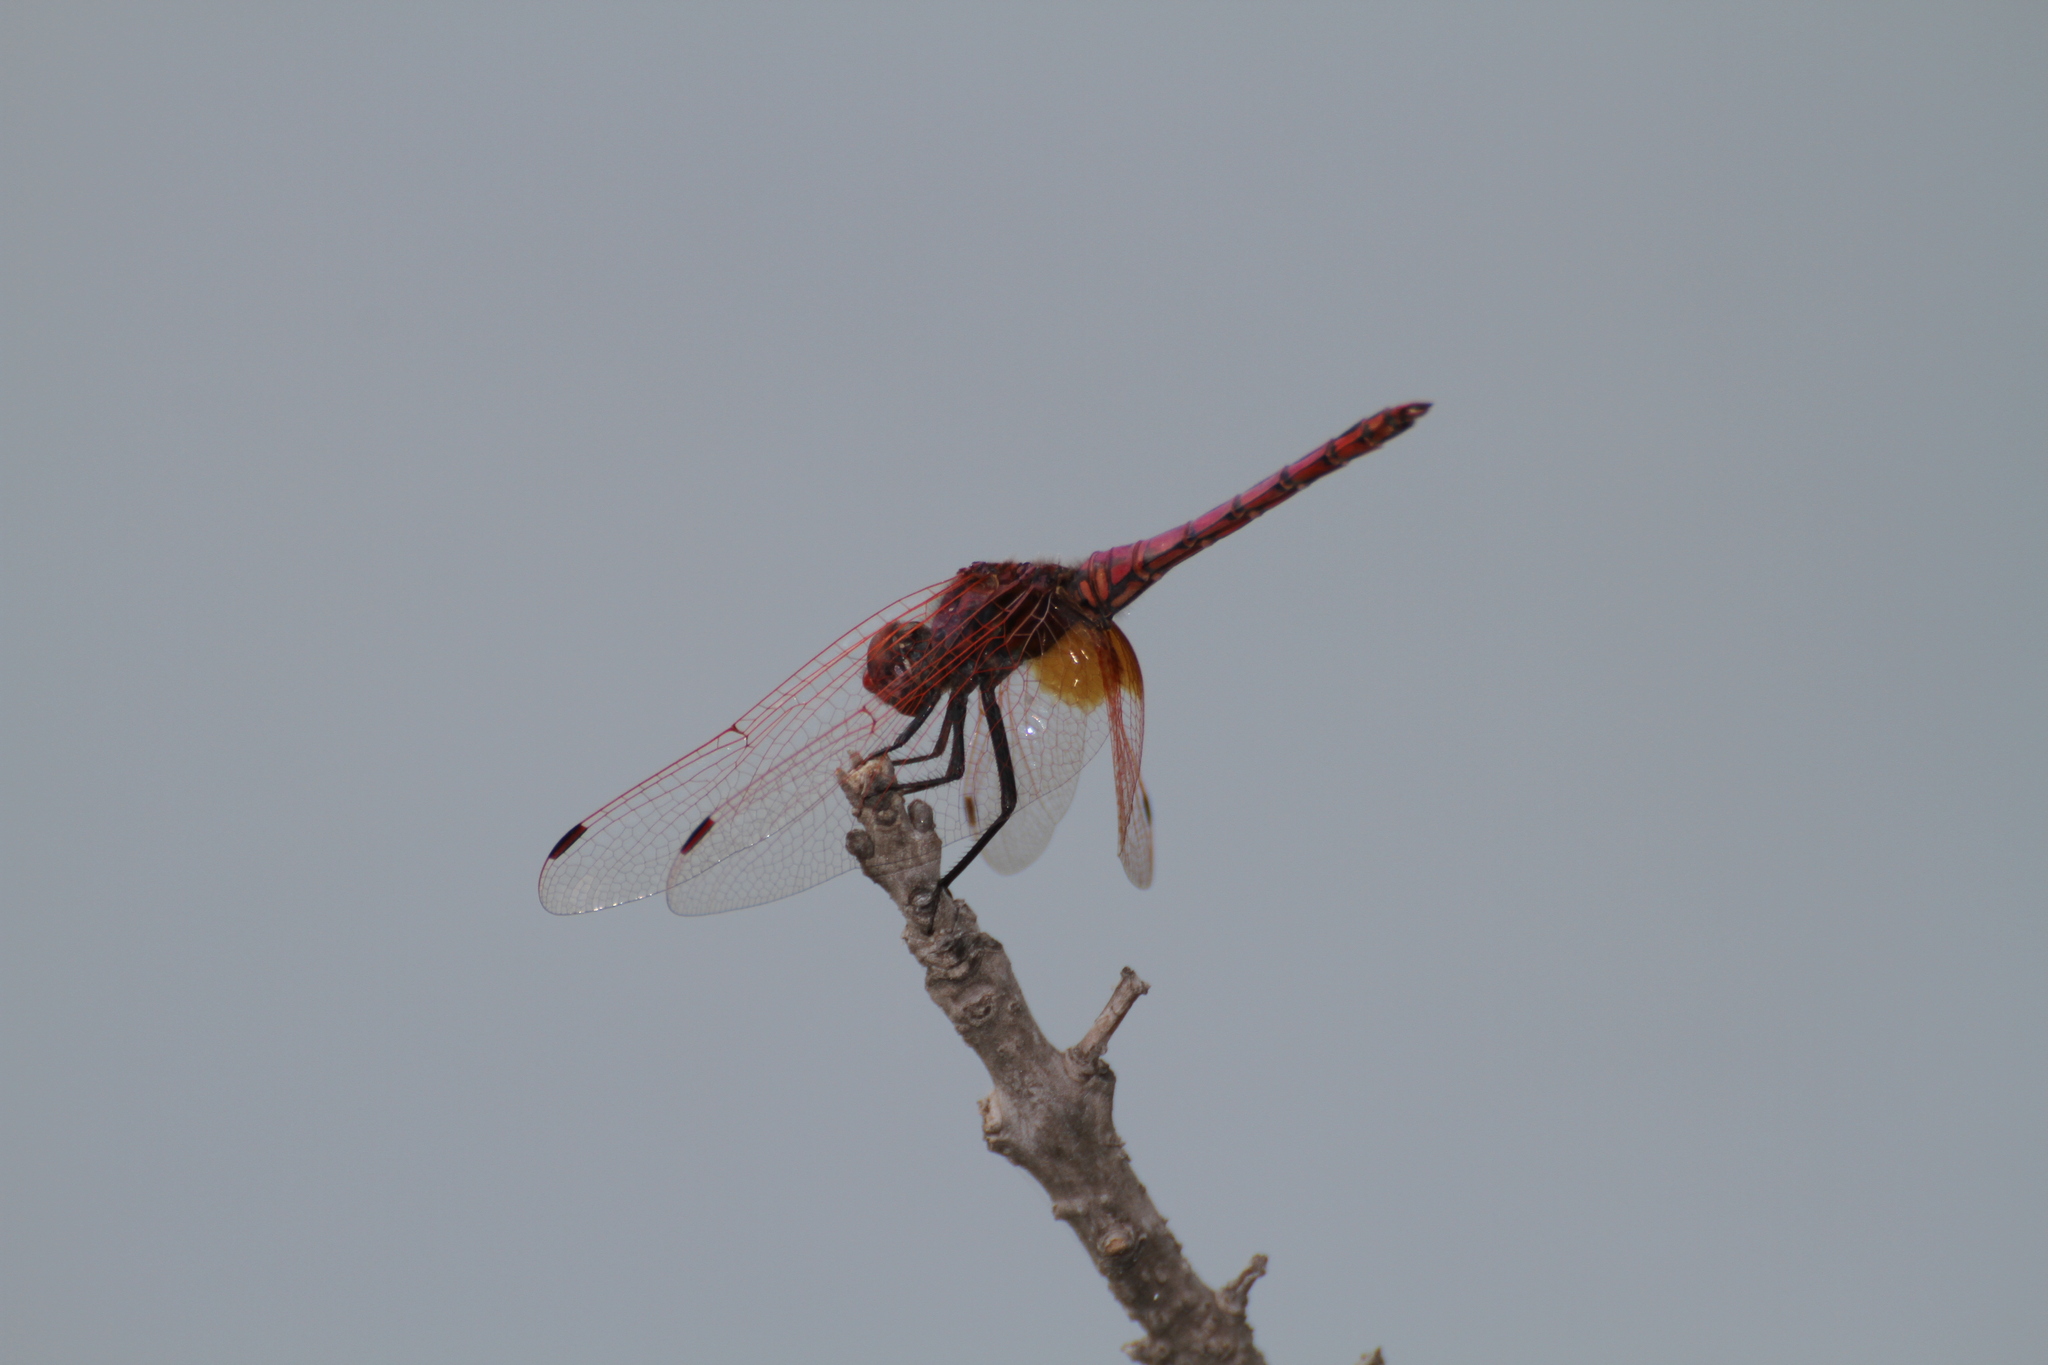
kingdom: Animalia
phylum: Arthropoda
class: Insecta
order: Odonata
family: Libellulidae
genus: Trithemis
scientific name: Trithemis annulata
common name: Violet dropwing
